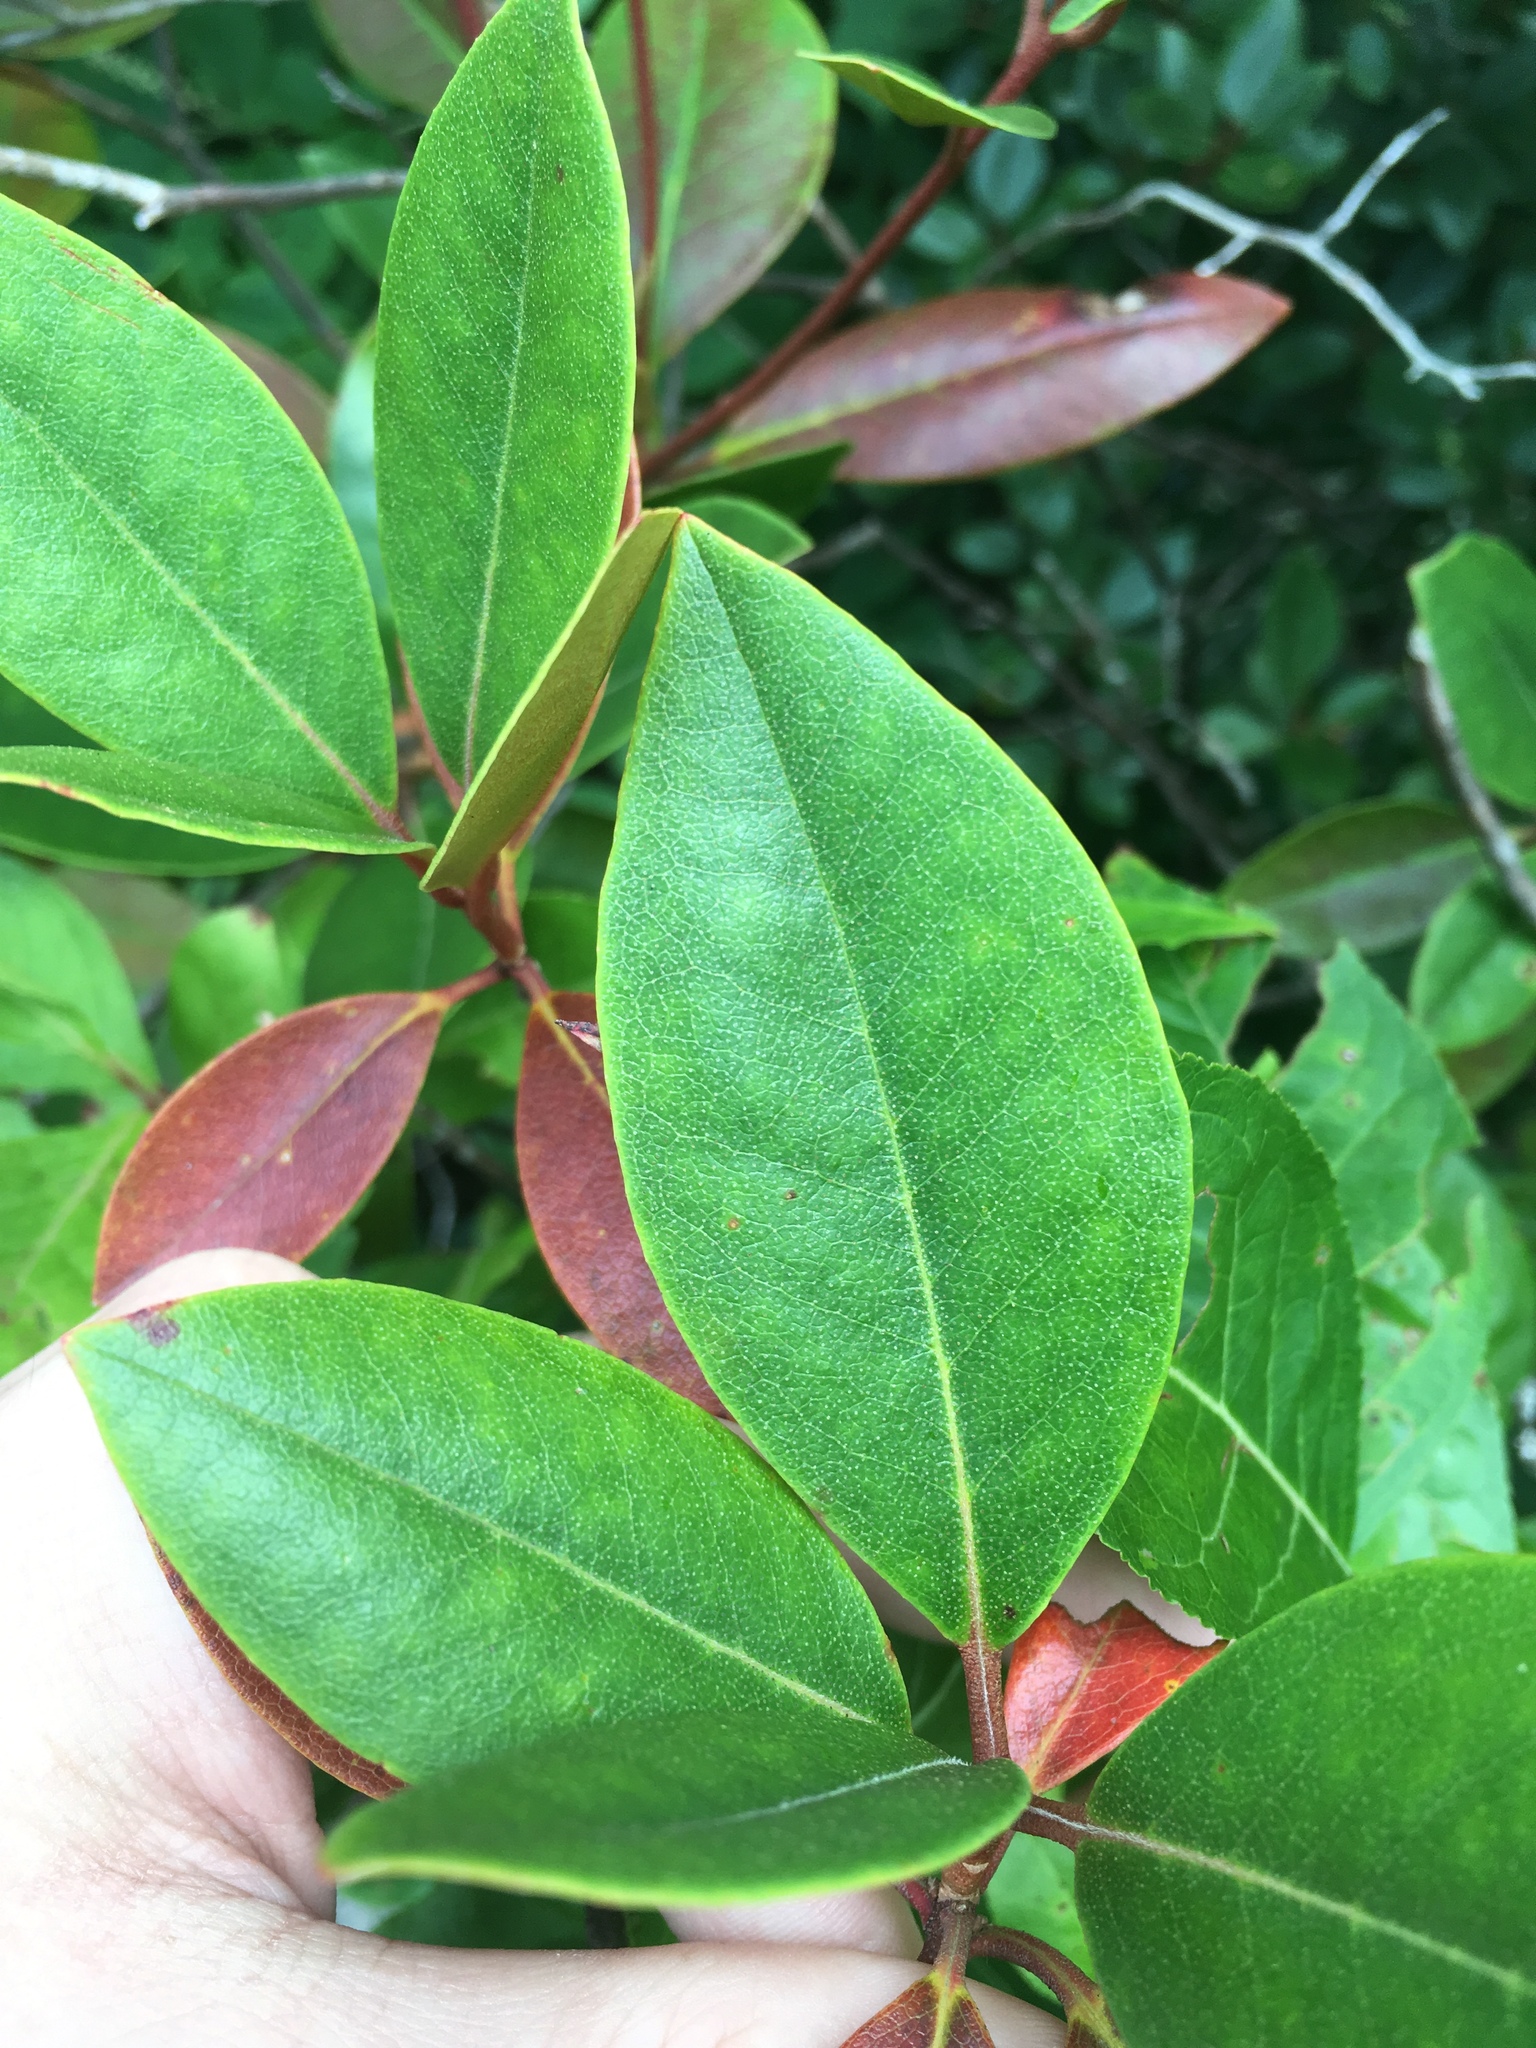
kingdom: Plantae
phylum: Tracheophyta
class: Magnoliopsida
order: Ericales
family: Ericaceae
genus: Rhododendron
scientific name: Rhododendron minus
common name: Piedmont rhododendron
